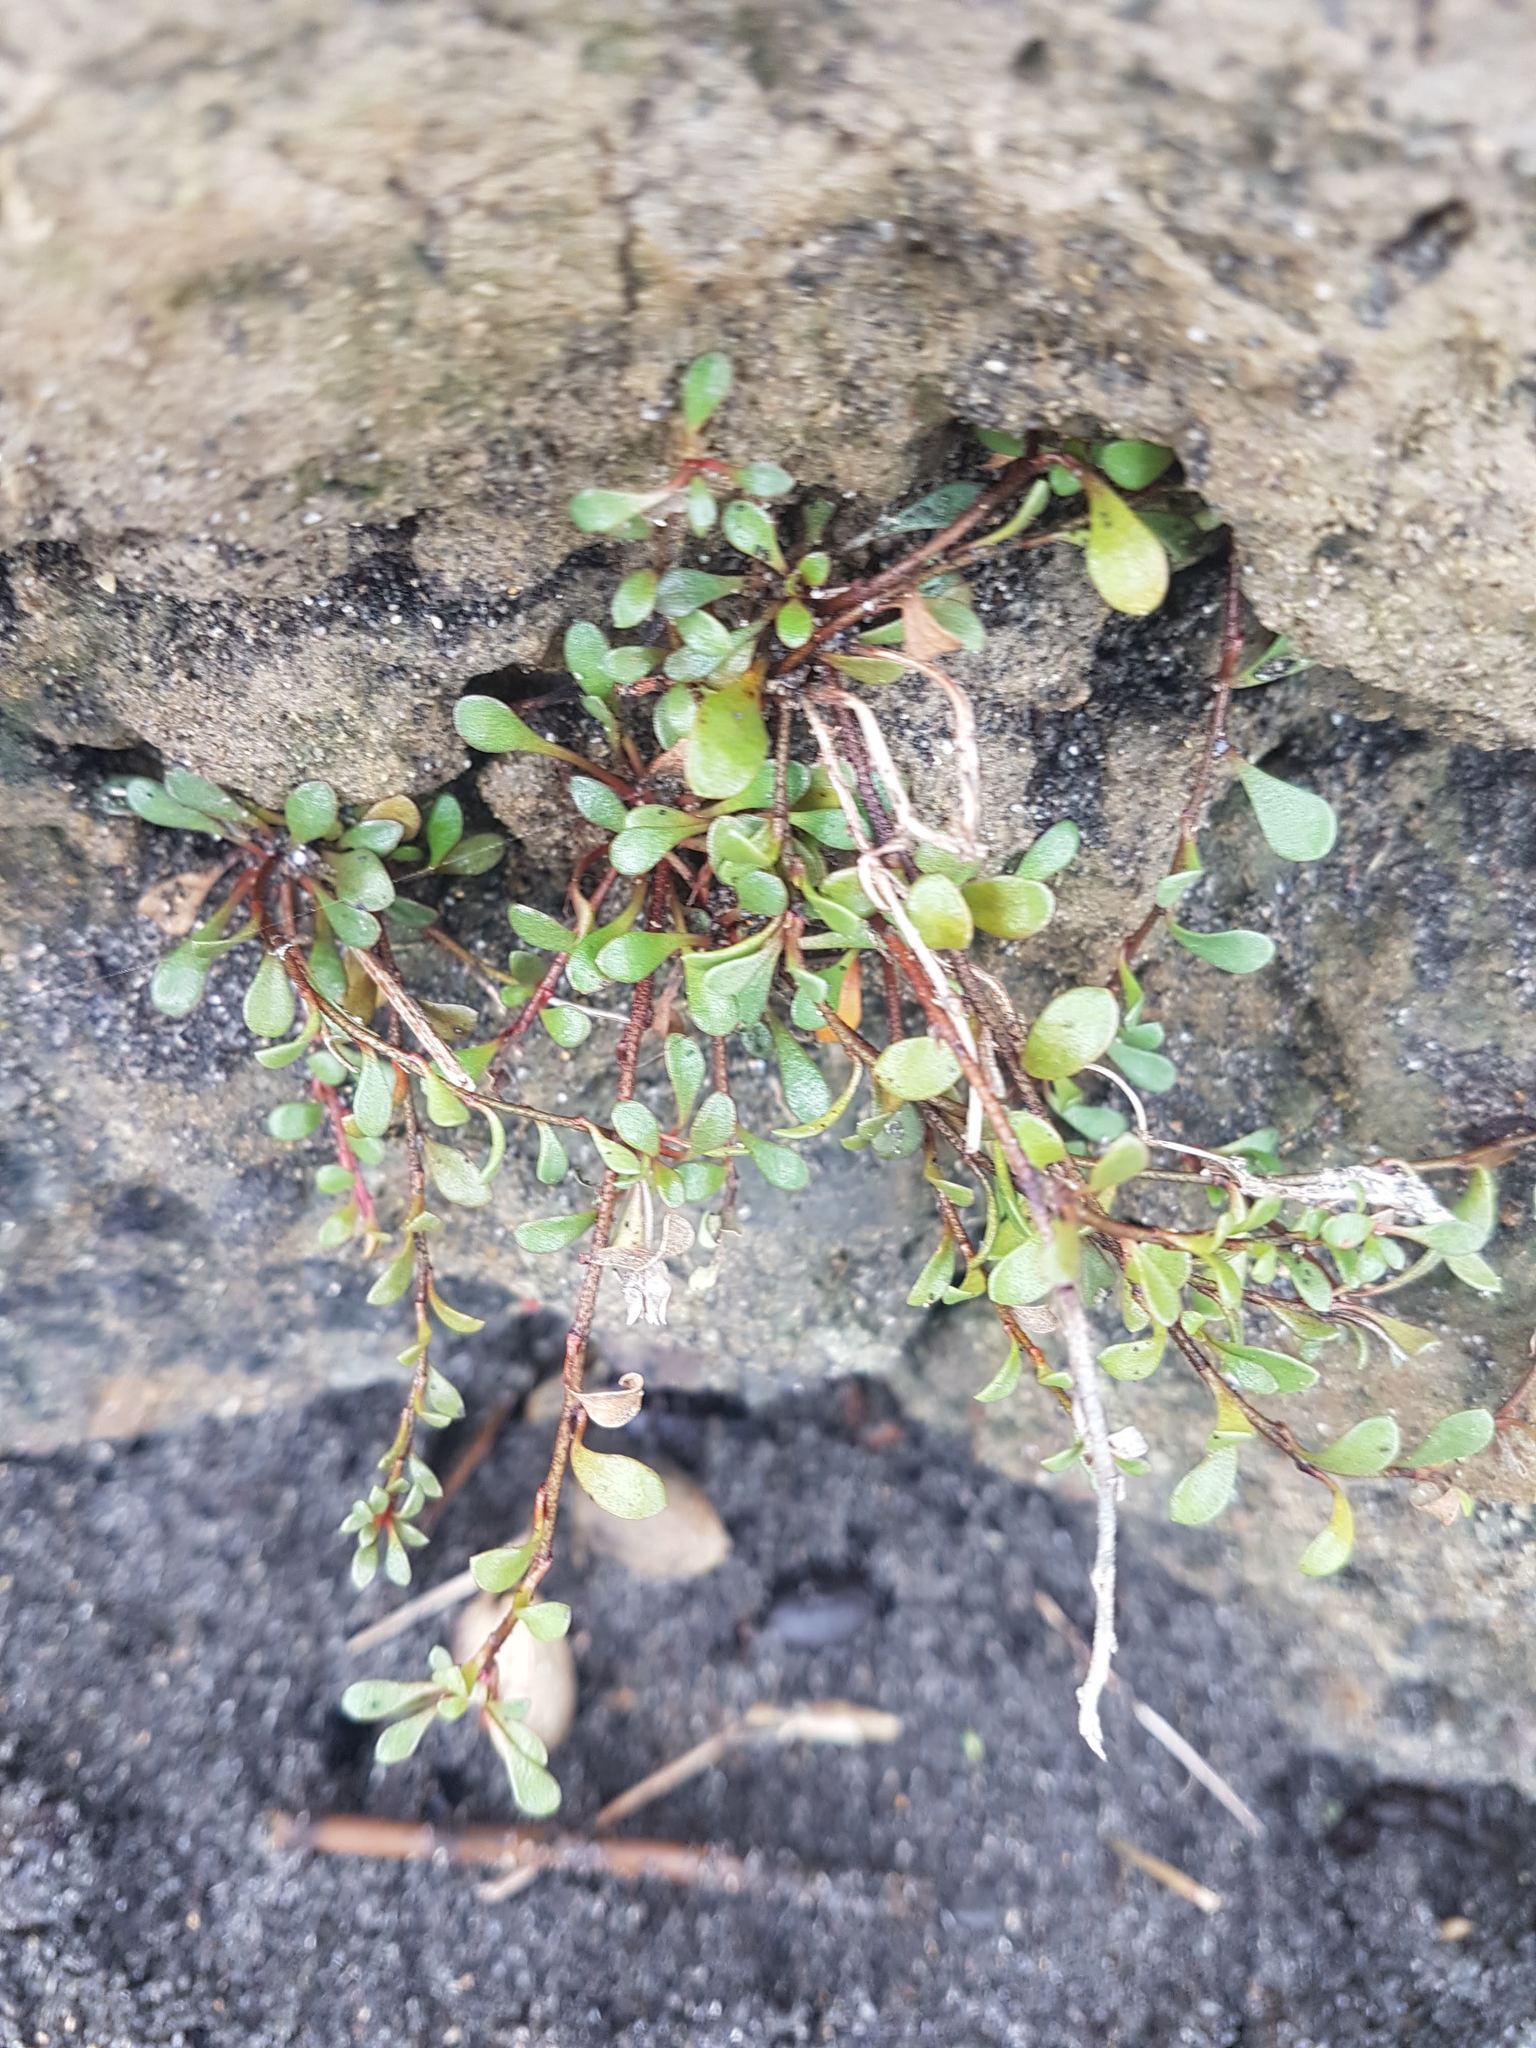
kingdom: Plantae
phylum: Tracheophyta
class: Magnoliopsida
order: Ericales
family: Primulaceae
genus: Samolus
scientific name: Samolus repens
